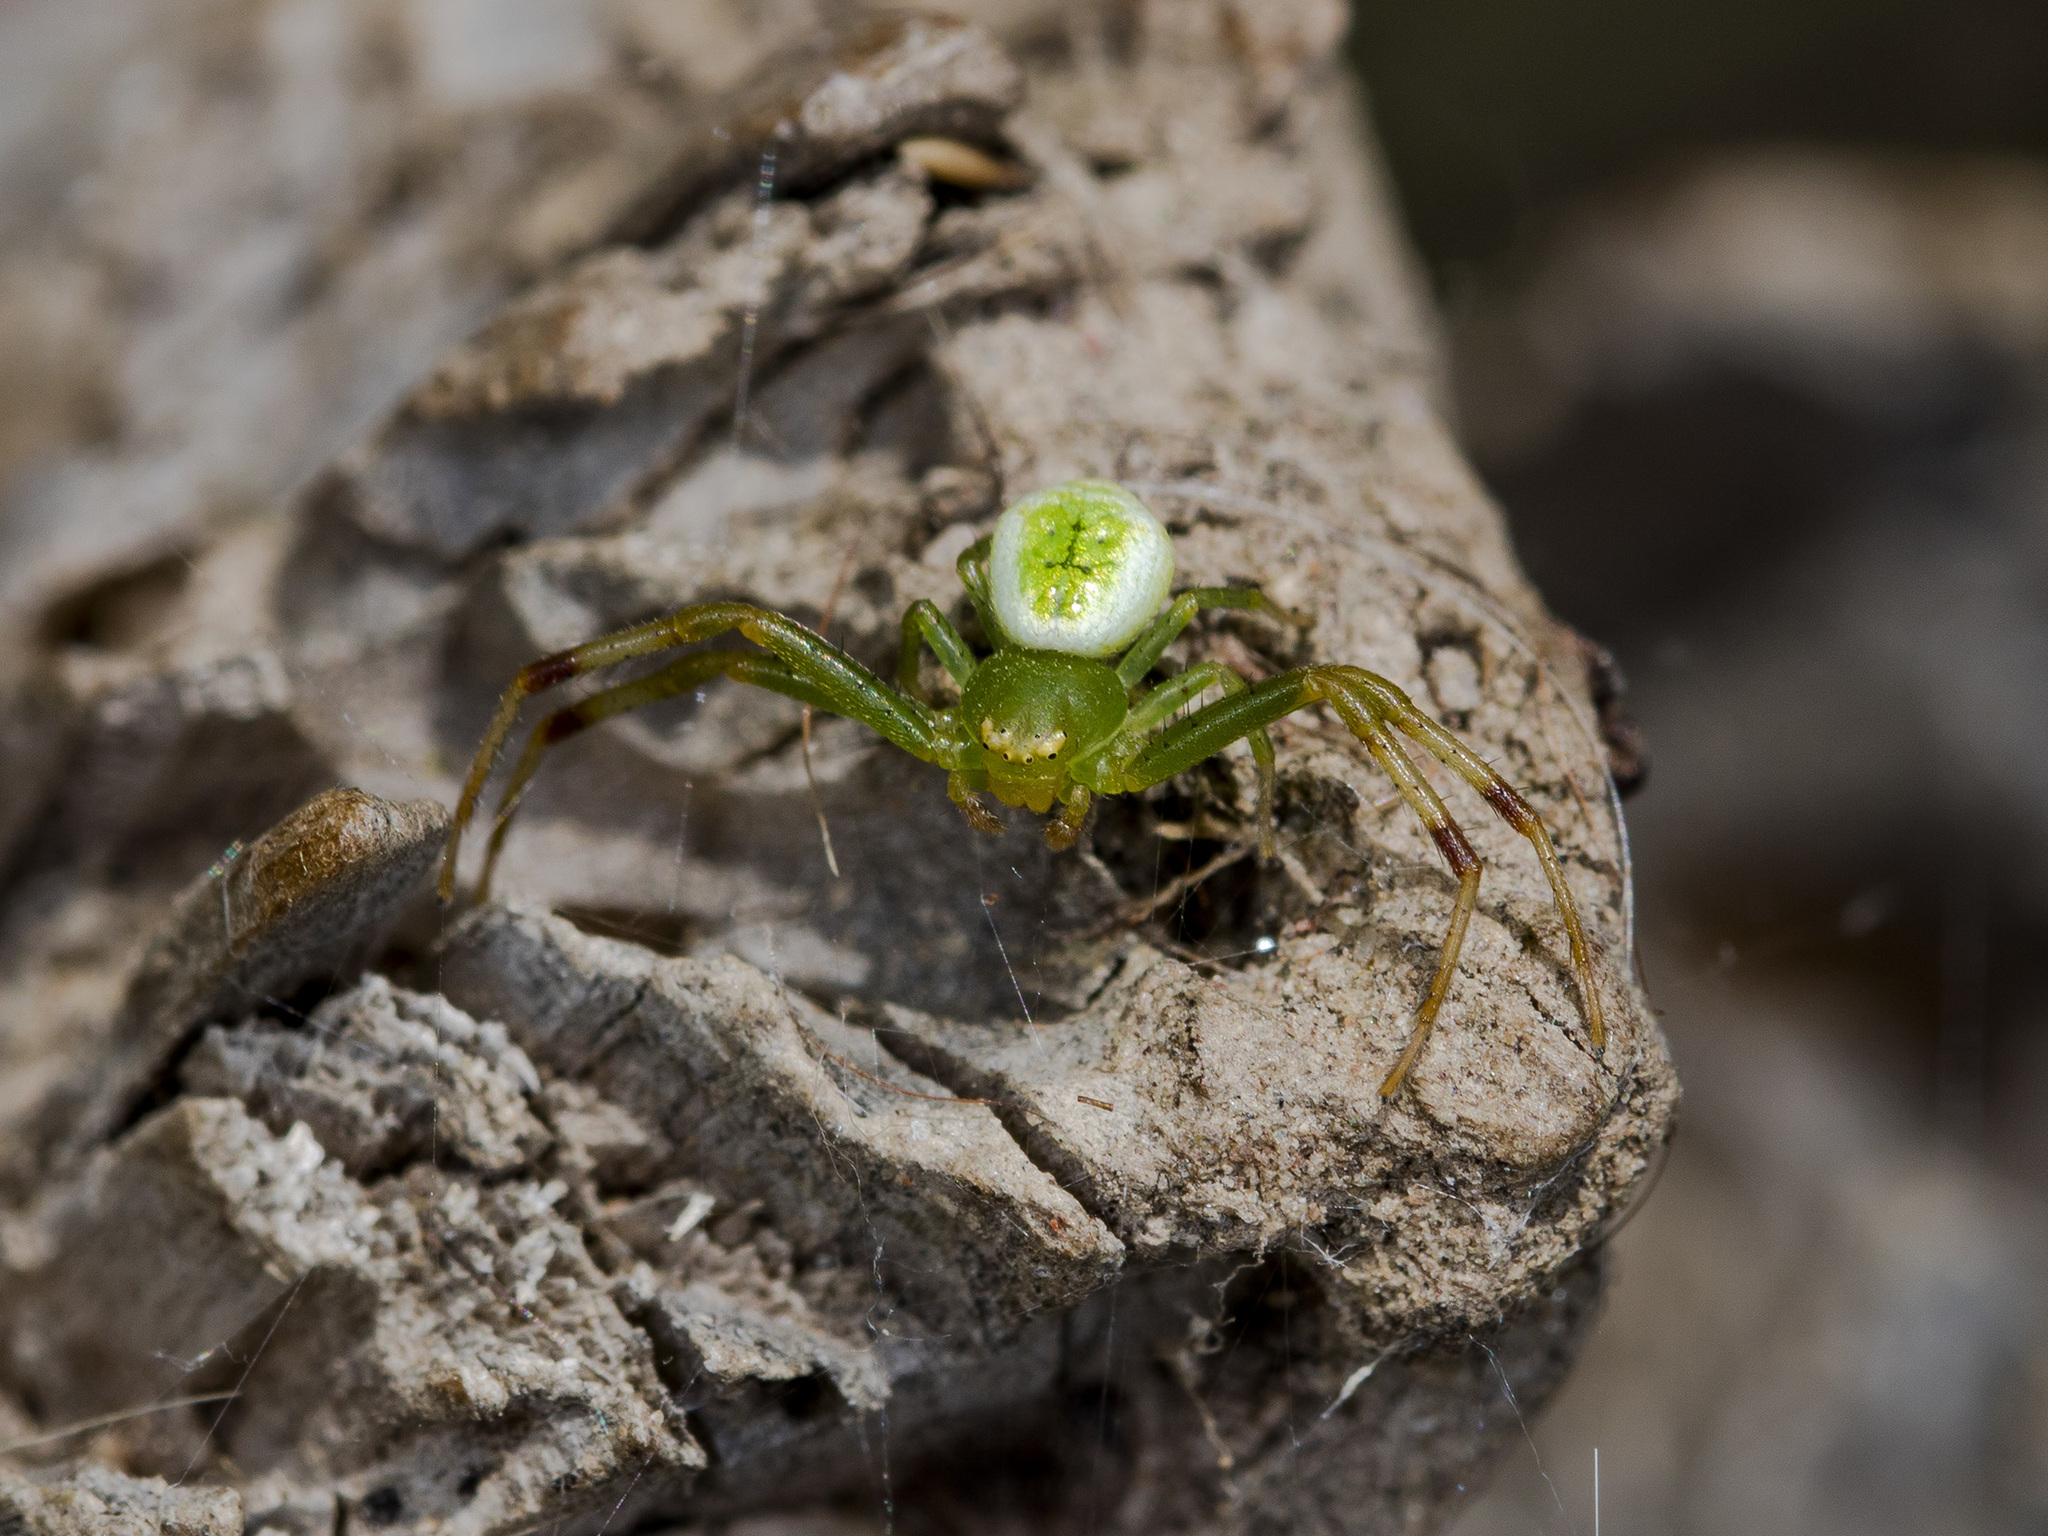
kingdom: Animalia
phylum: Arthropoda
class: Arachnida
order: Araneae
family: Thomisidae
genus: Ebrechtella
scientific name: Ebrechtella tricuspidata
